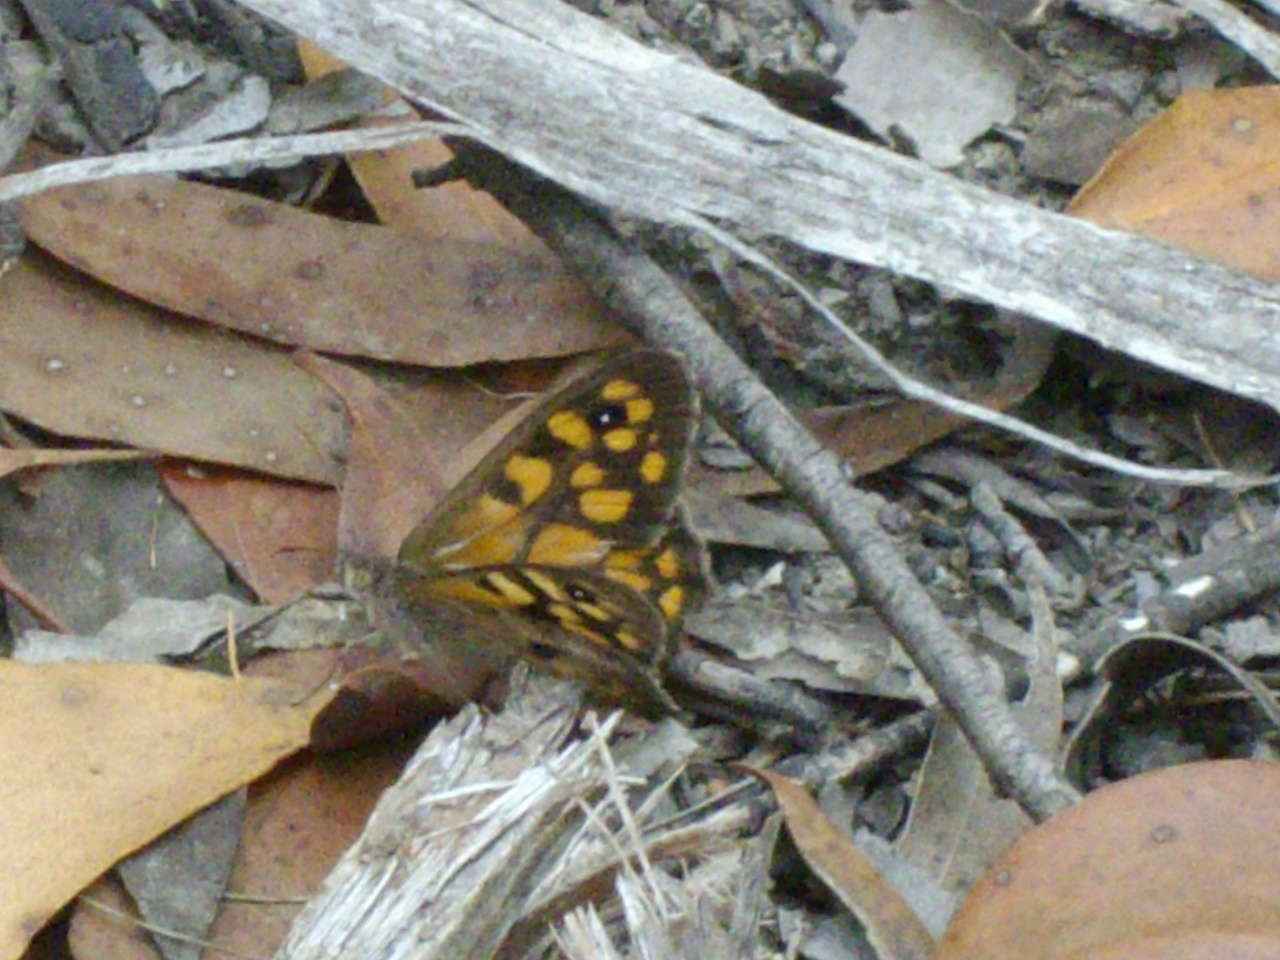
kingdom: Animalia
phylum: Arthropoda
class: Insecta
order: Lepidoptera
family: Nymphalidae
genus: Geitoneura
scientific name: Geitoneura klugii
